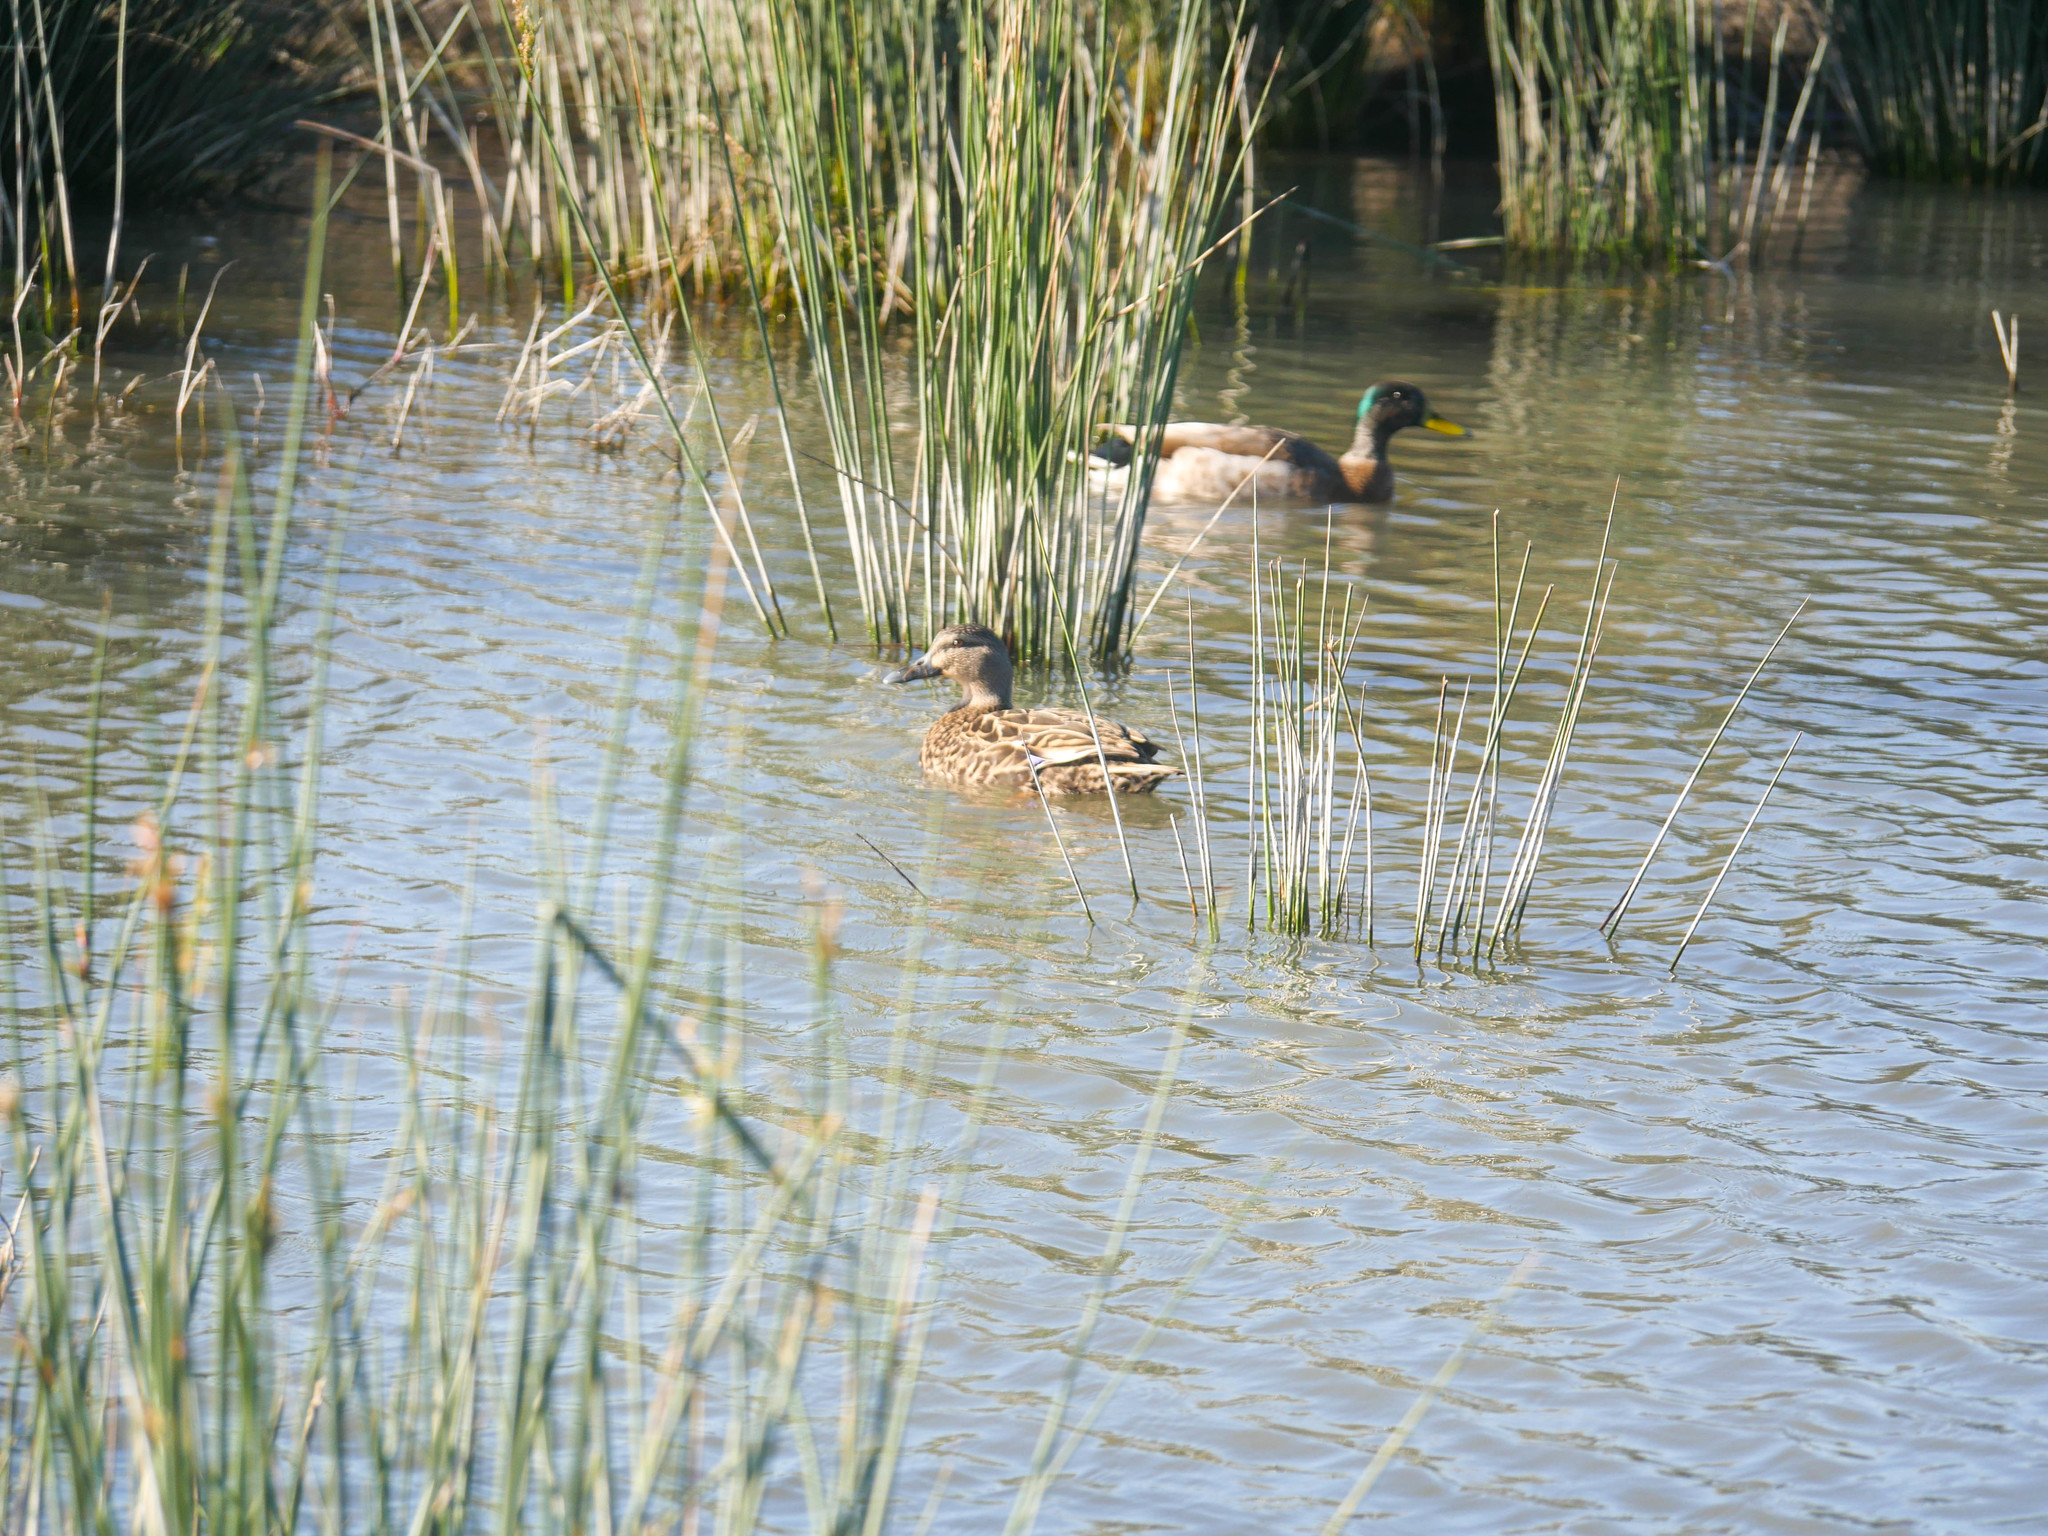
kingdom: Animalia
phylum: Chordata
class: Aves
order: Anseriformes
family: Anatidae
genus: Anas
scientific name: Anas platyrhynchos
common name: Mallard
